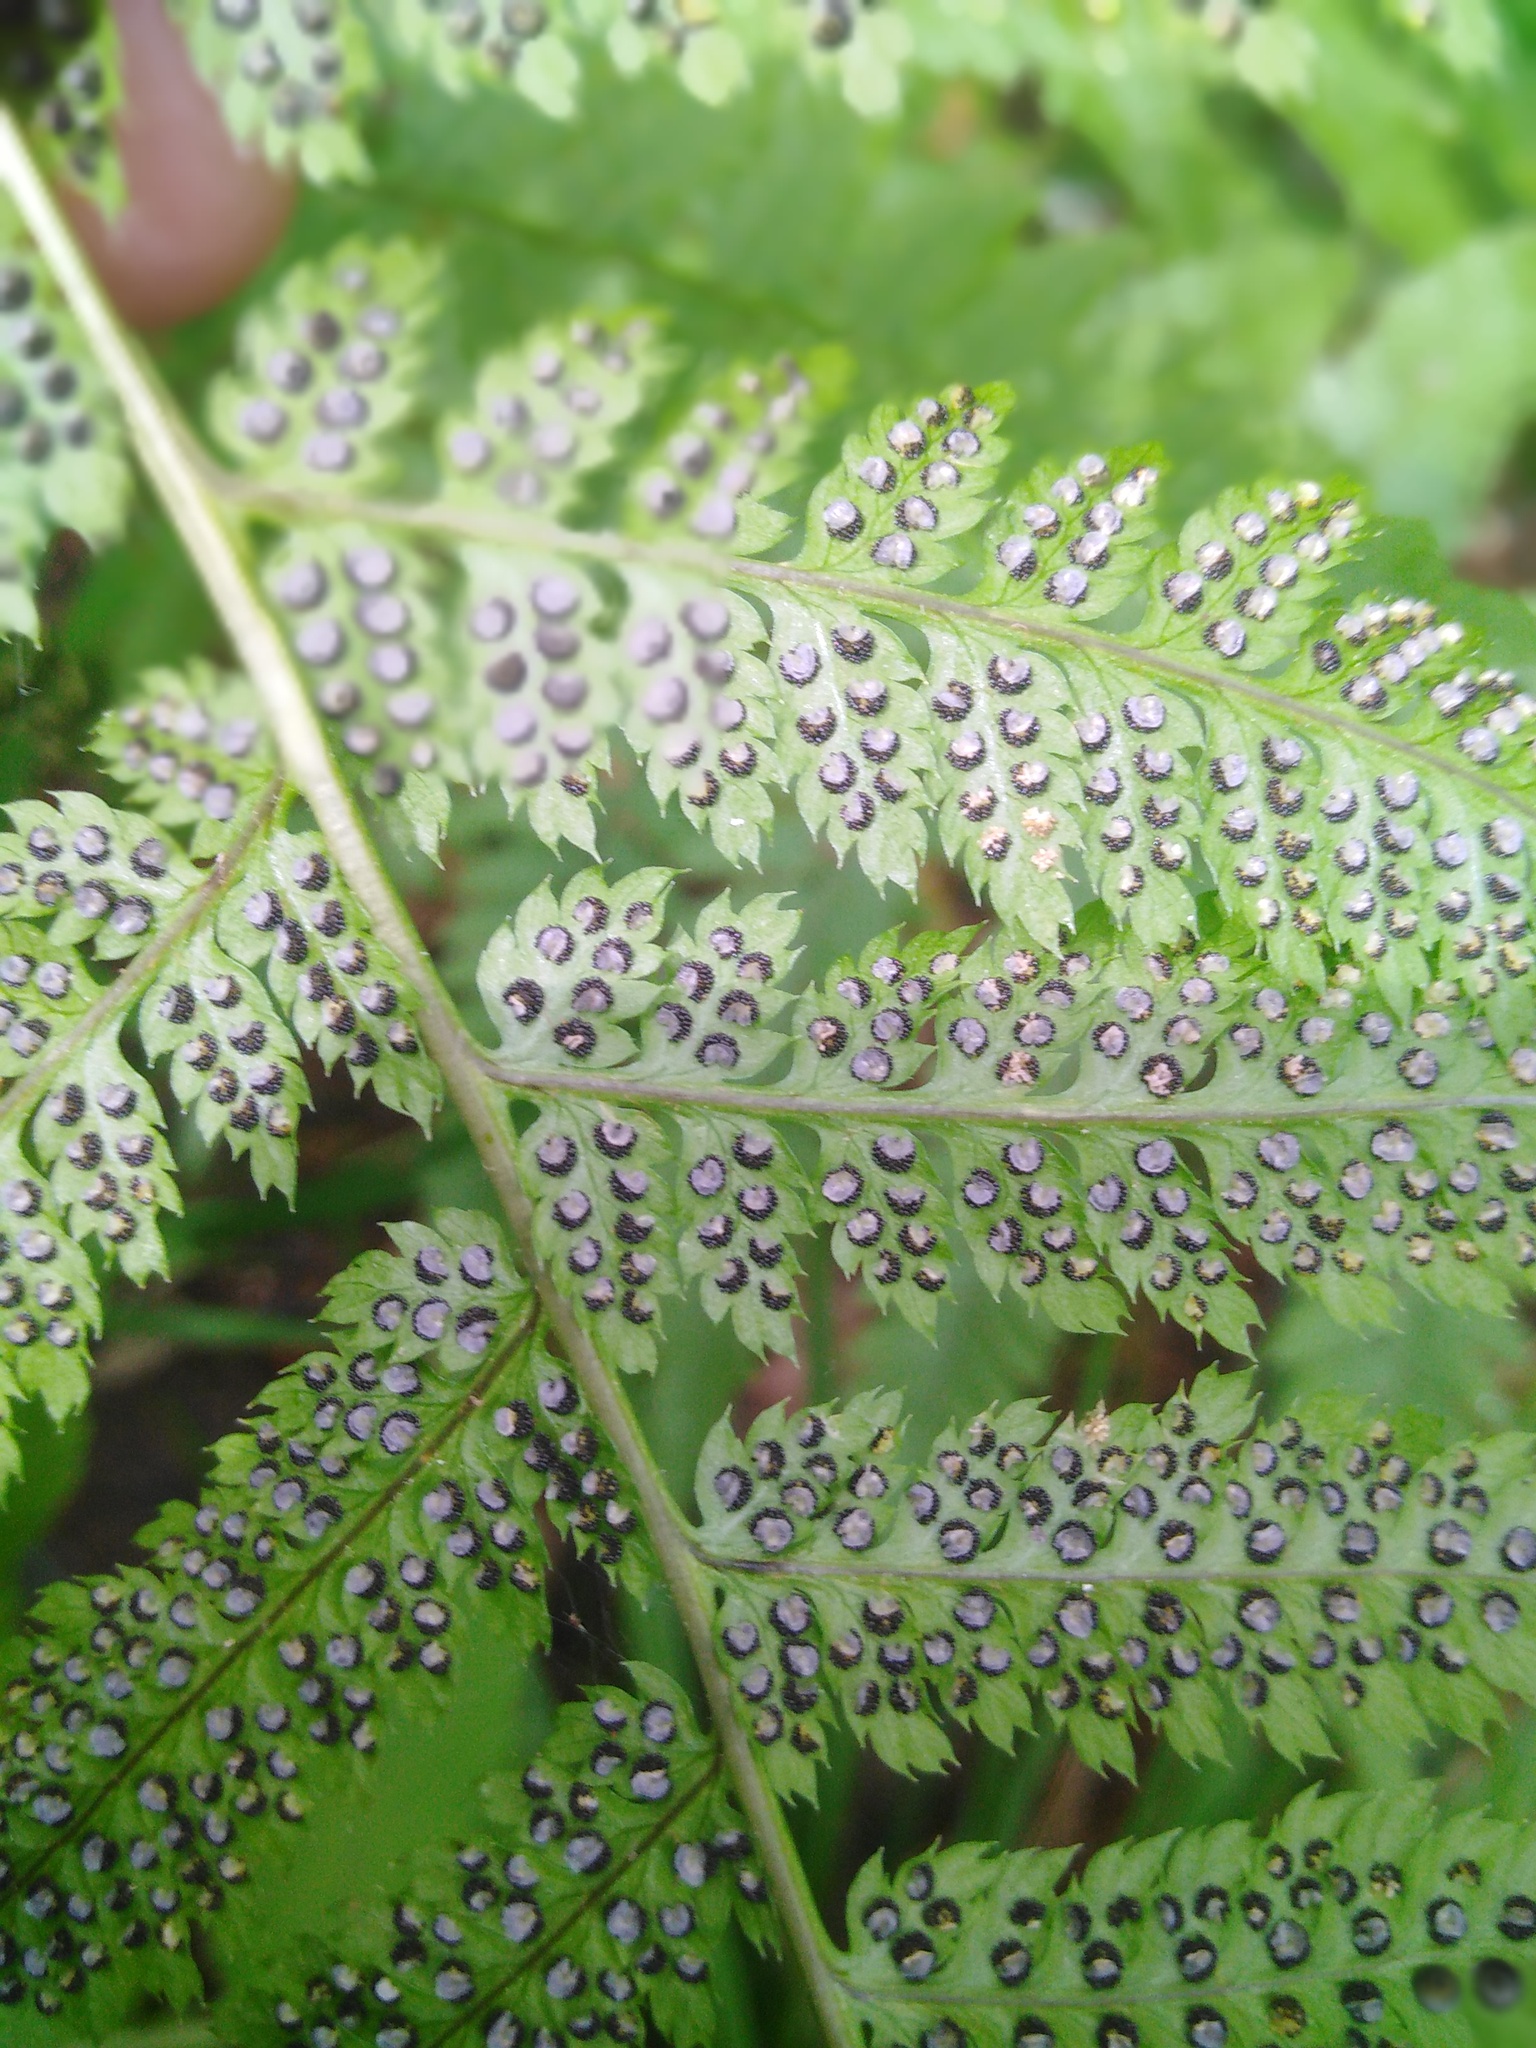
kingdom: Plantae
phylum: Tracheophyta
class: Polypodiopsida
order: Polypodiales
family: Dryopteridaceae
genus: Dryopteris
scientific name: Dryopteris carthusiana
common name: Narrow buckler-fern
